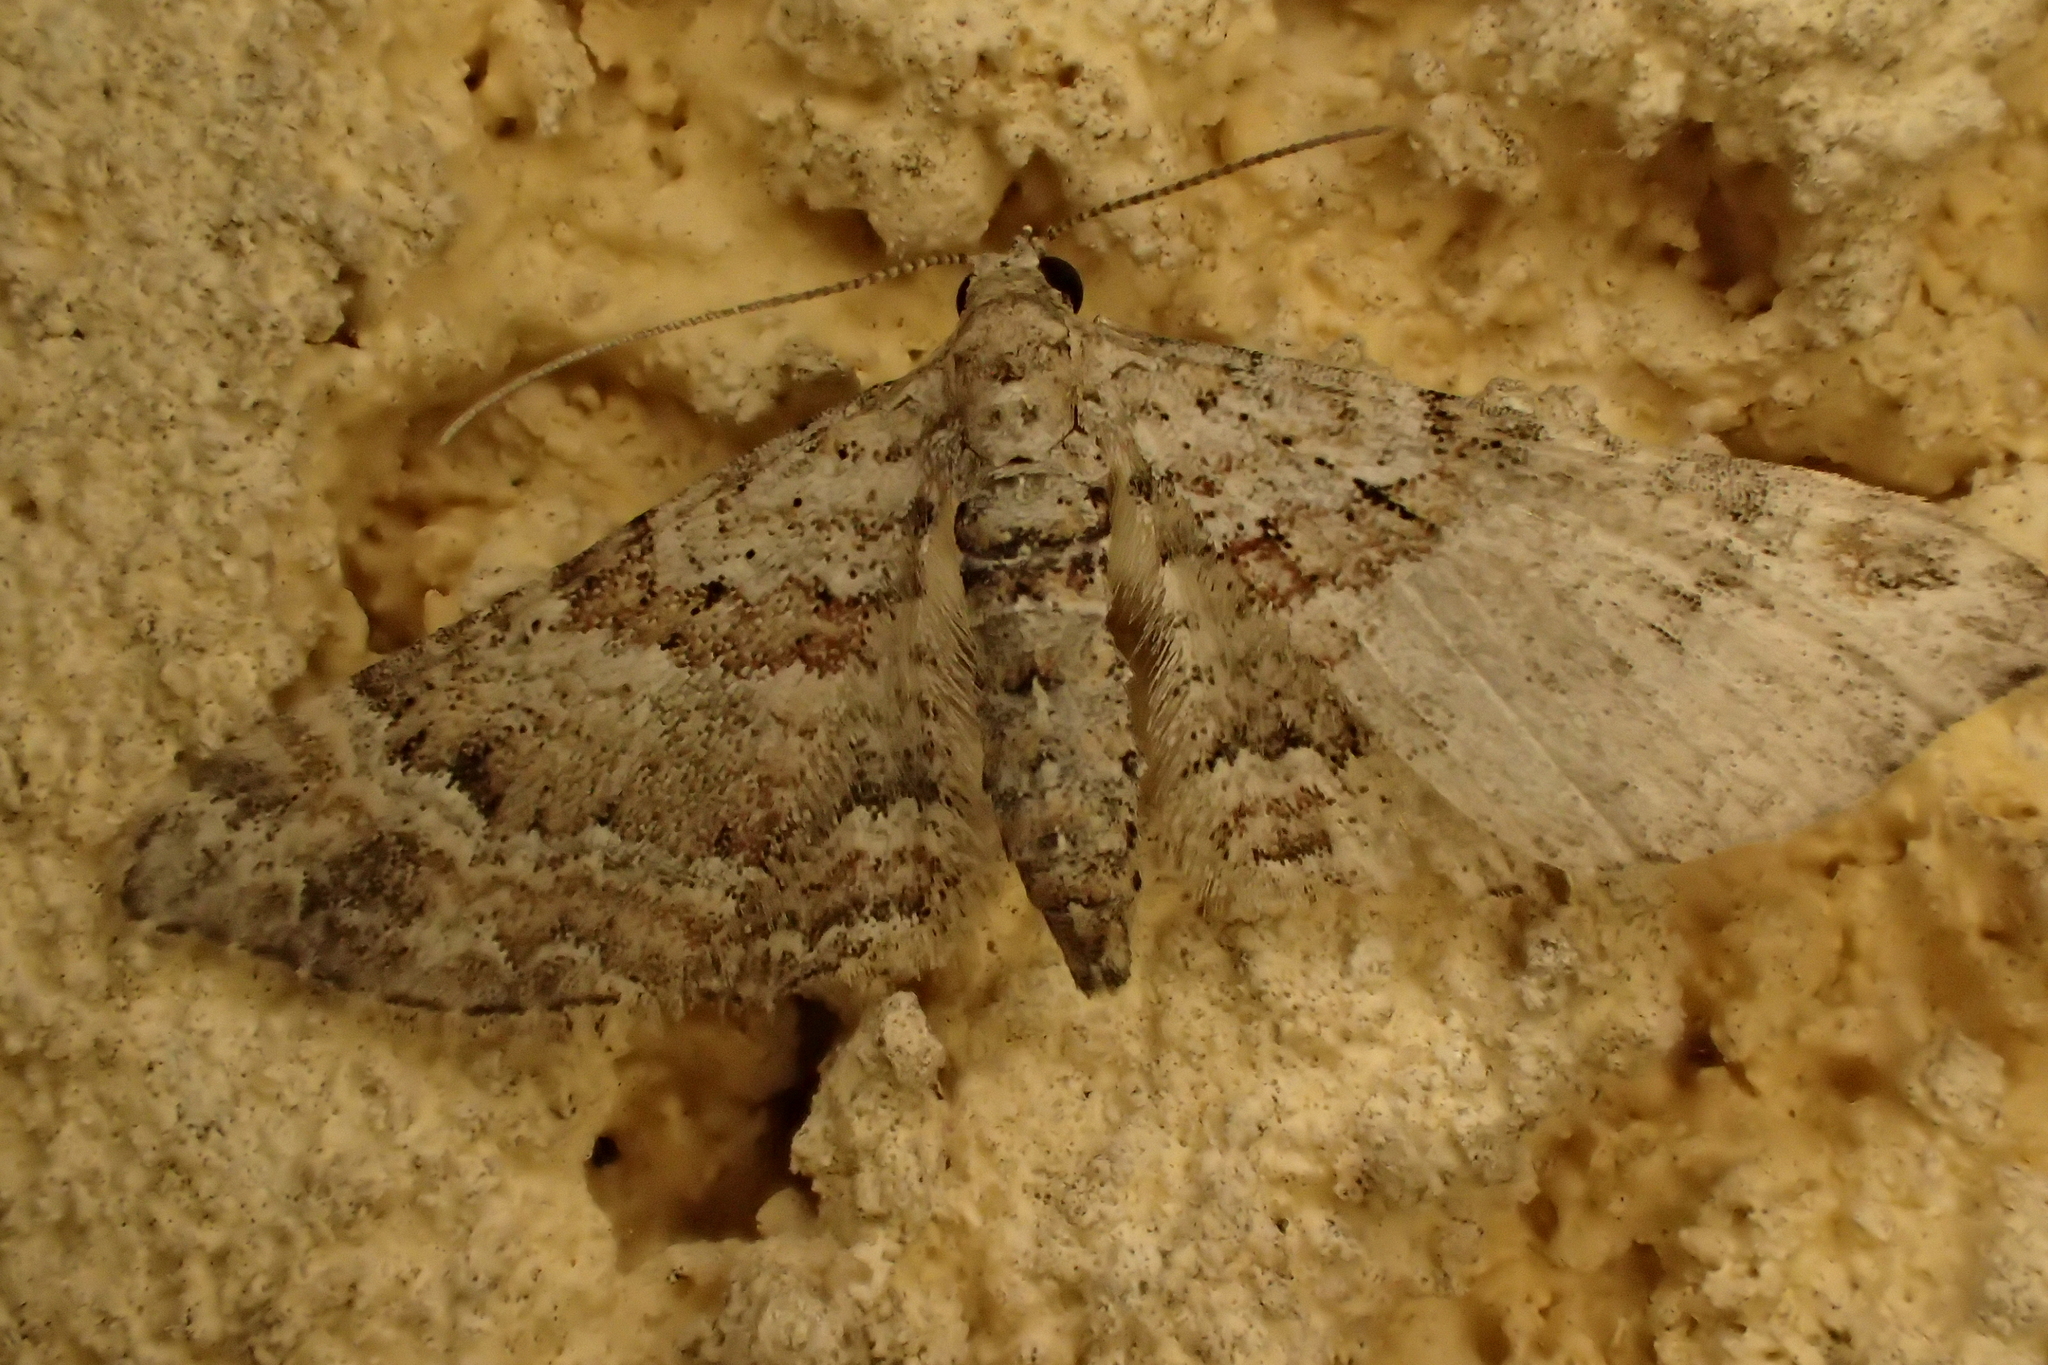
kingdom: Animalia
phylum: Arthropoda
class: Insecta
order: Lepidoptera
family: Geometridae
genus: Gymnoscelis
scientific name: Gymnoscelis rufifasciata
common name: Double-striped pug
